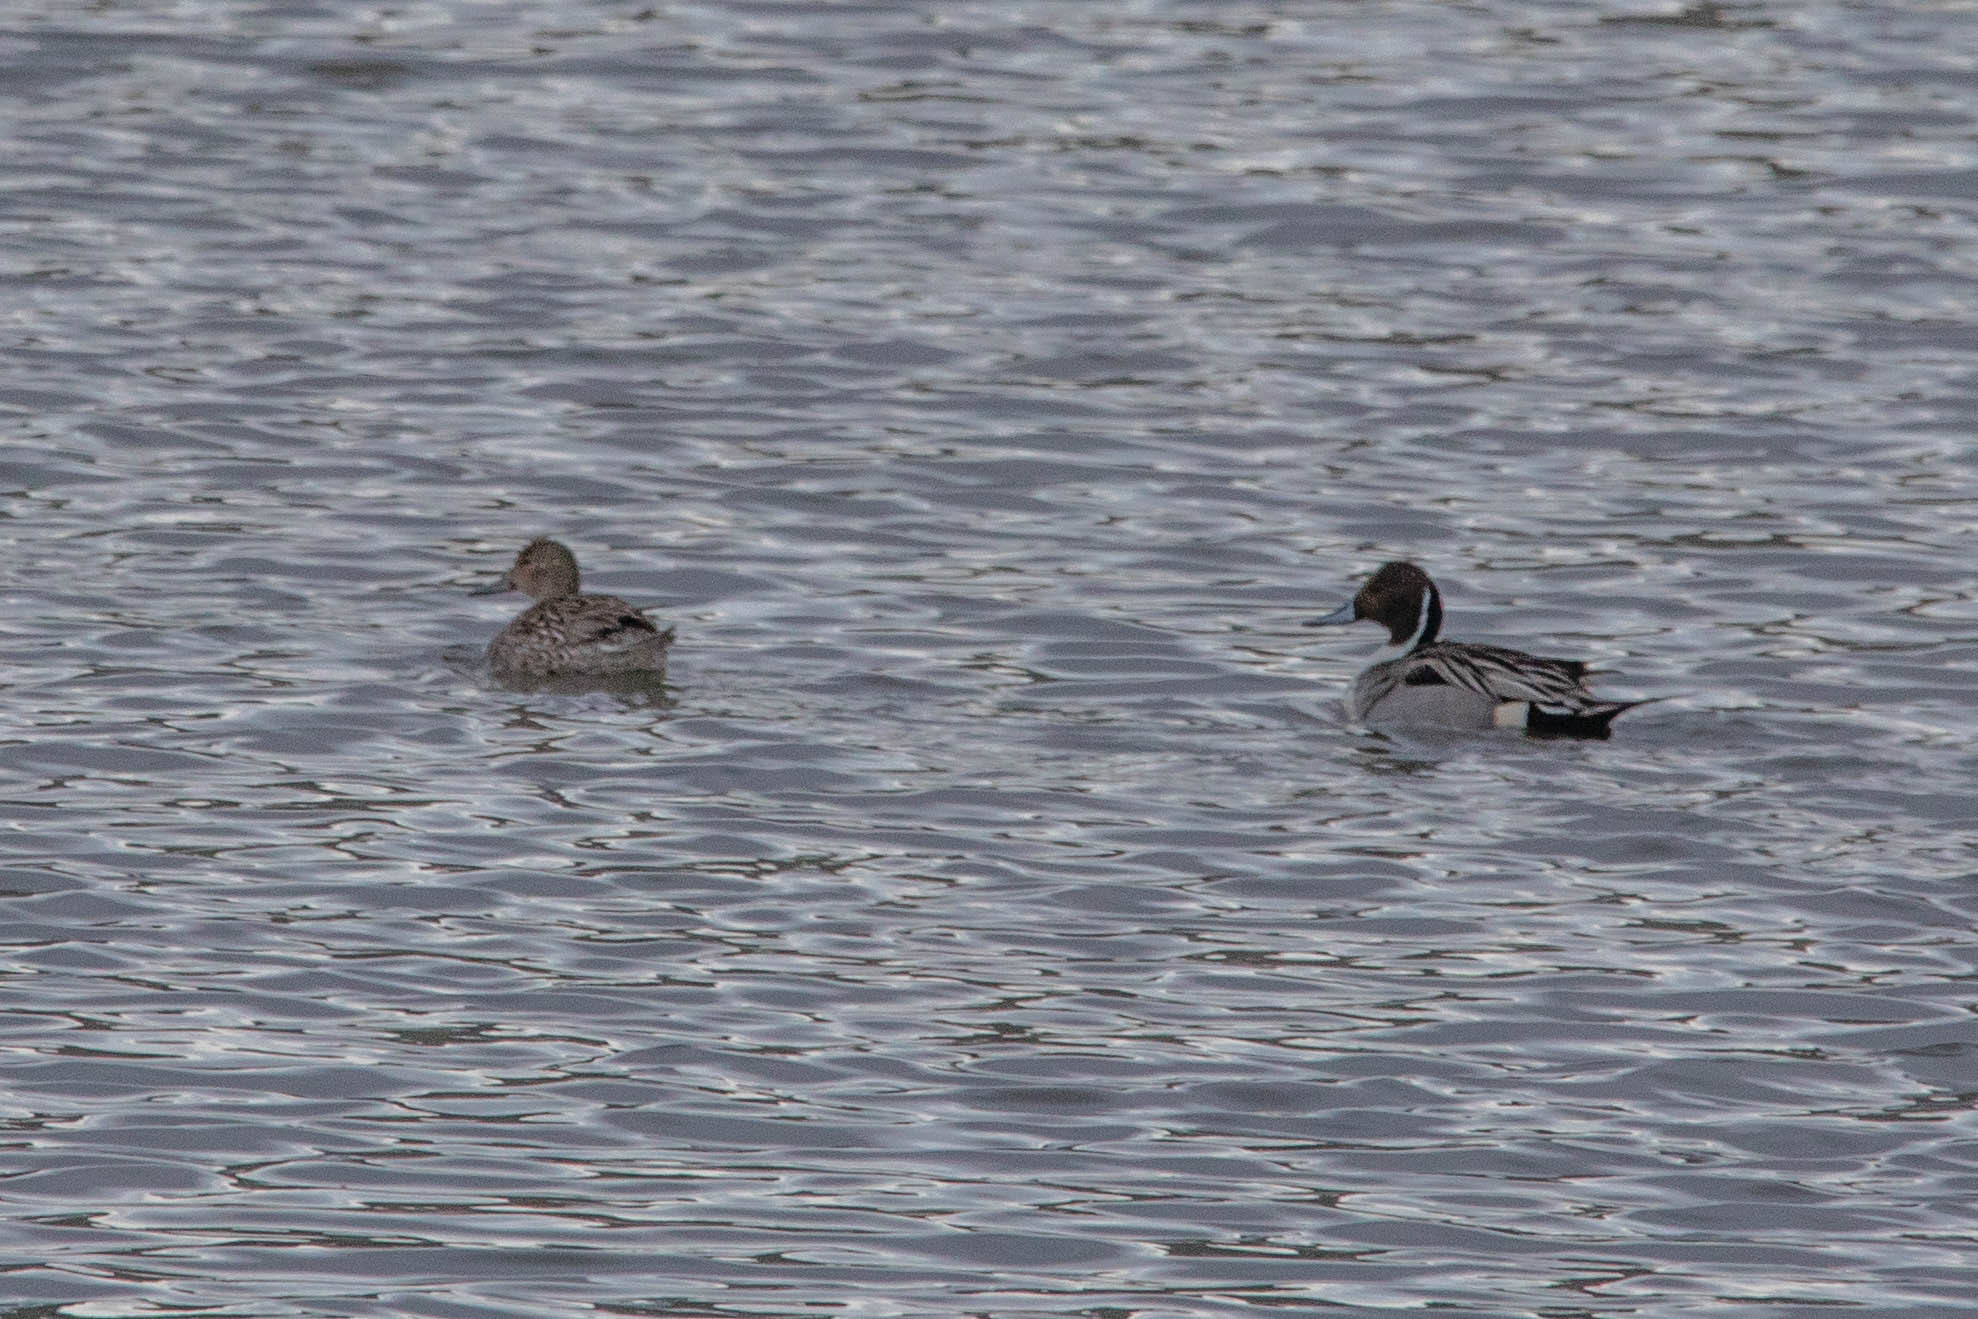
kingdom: Animalia
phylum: Chordata
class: Aves
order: Anseriformes
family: Anatidae
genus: Anas
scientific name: Anas acuta
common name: Northern pintail
